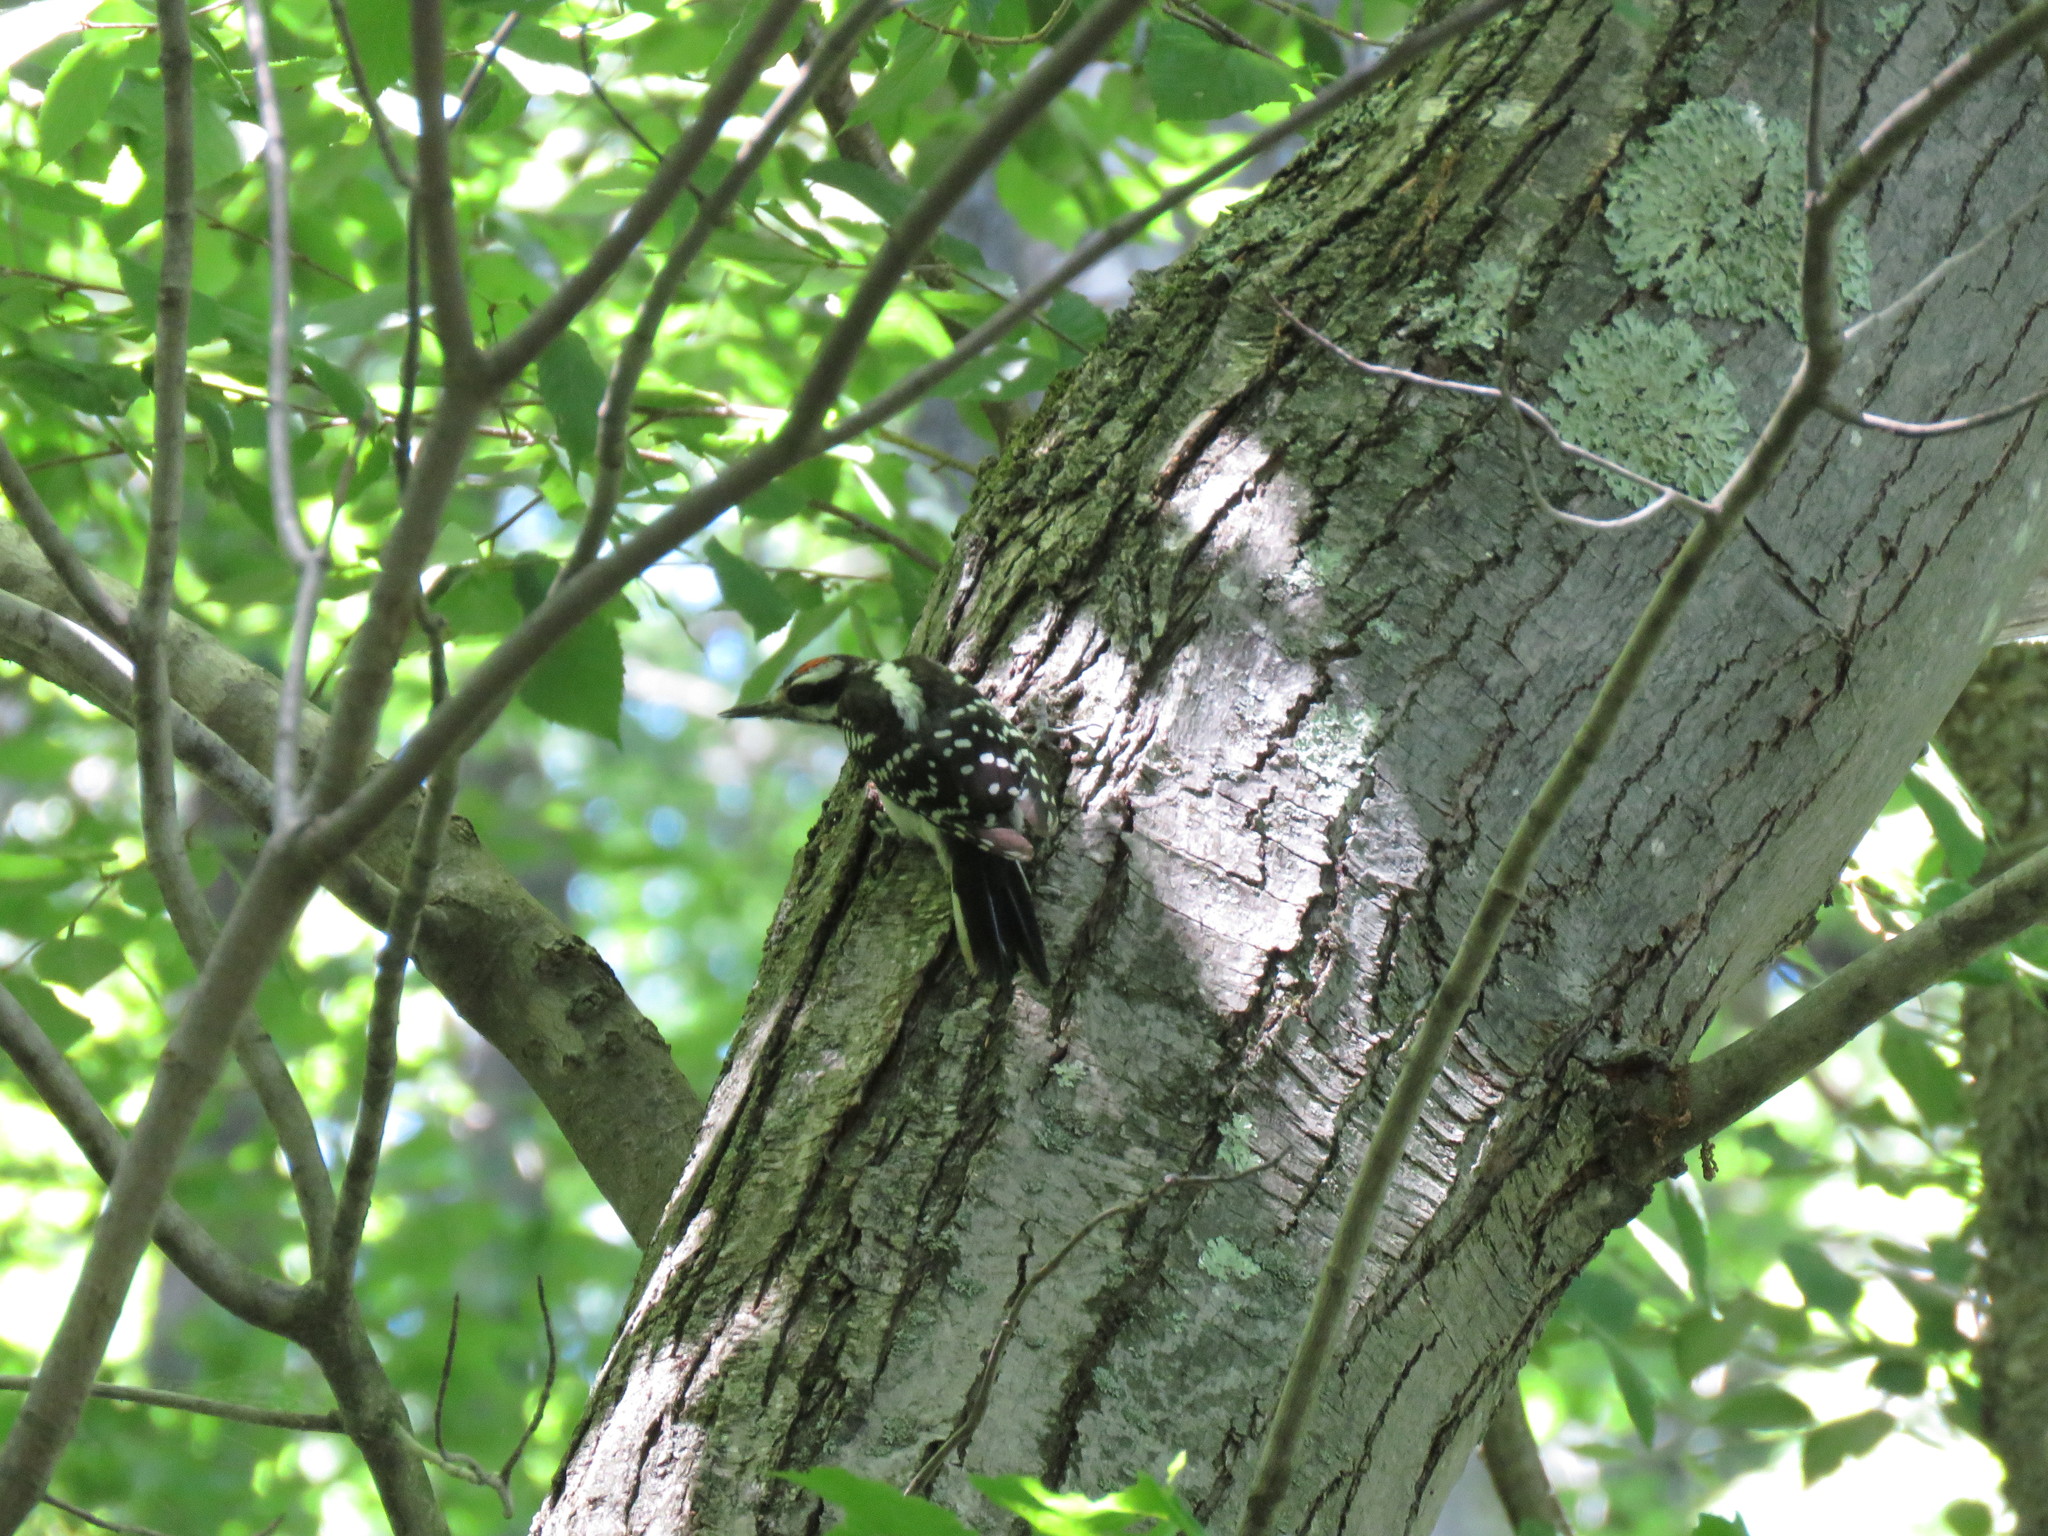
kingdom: Animalia
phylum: Chordata
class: Aves
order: Piciformes
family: Picidae
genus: Leuconotopicus
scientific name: Leuconotopicus villosus
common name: Hairy woodpecker
